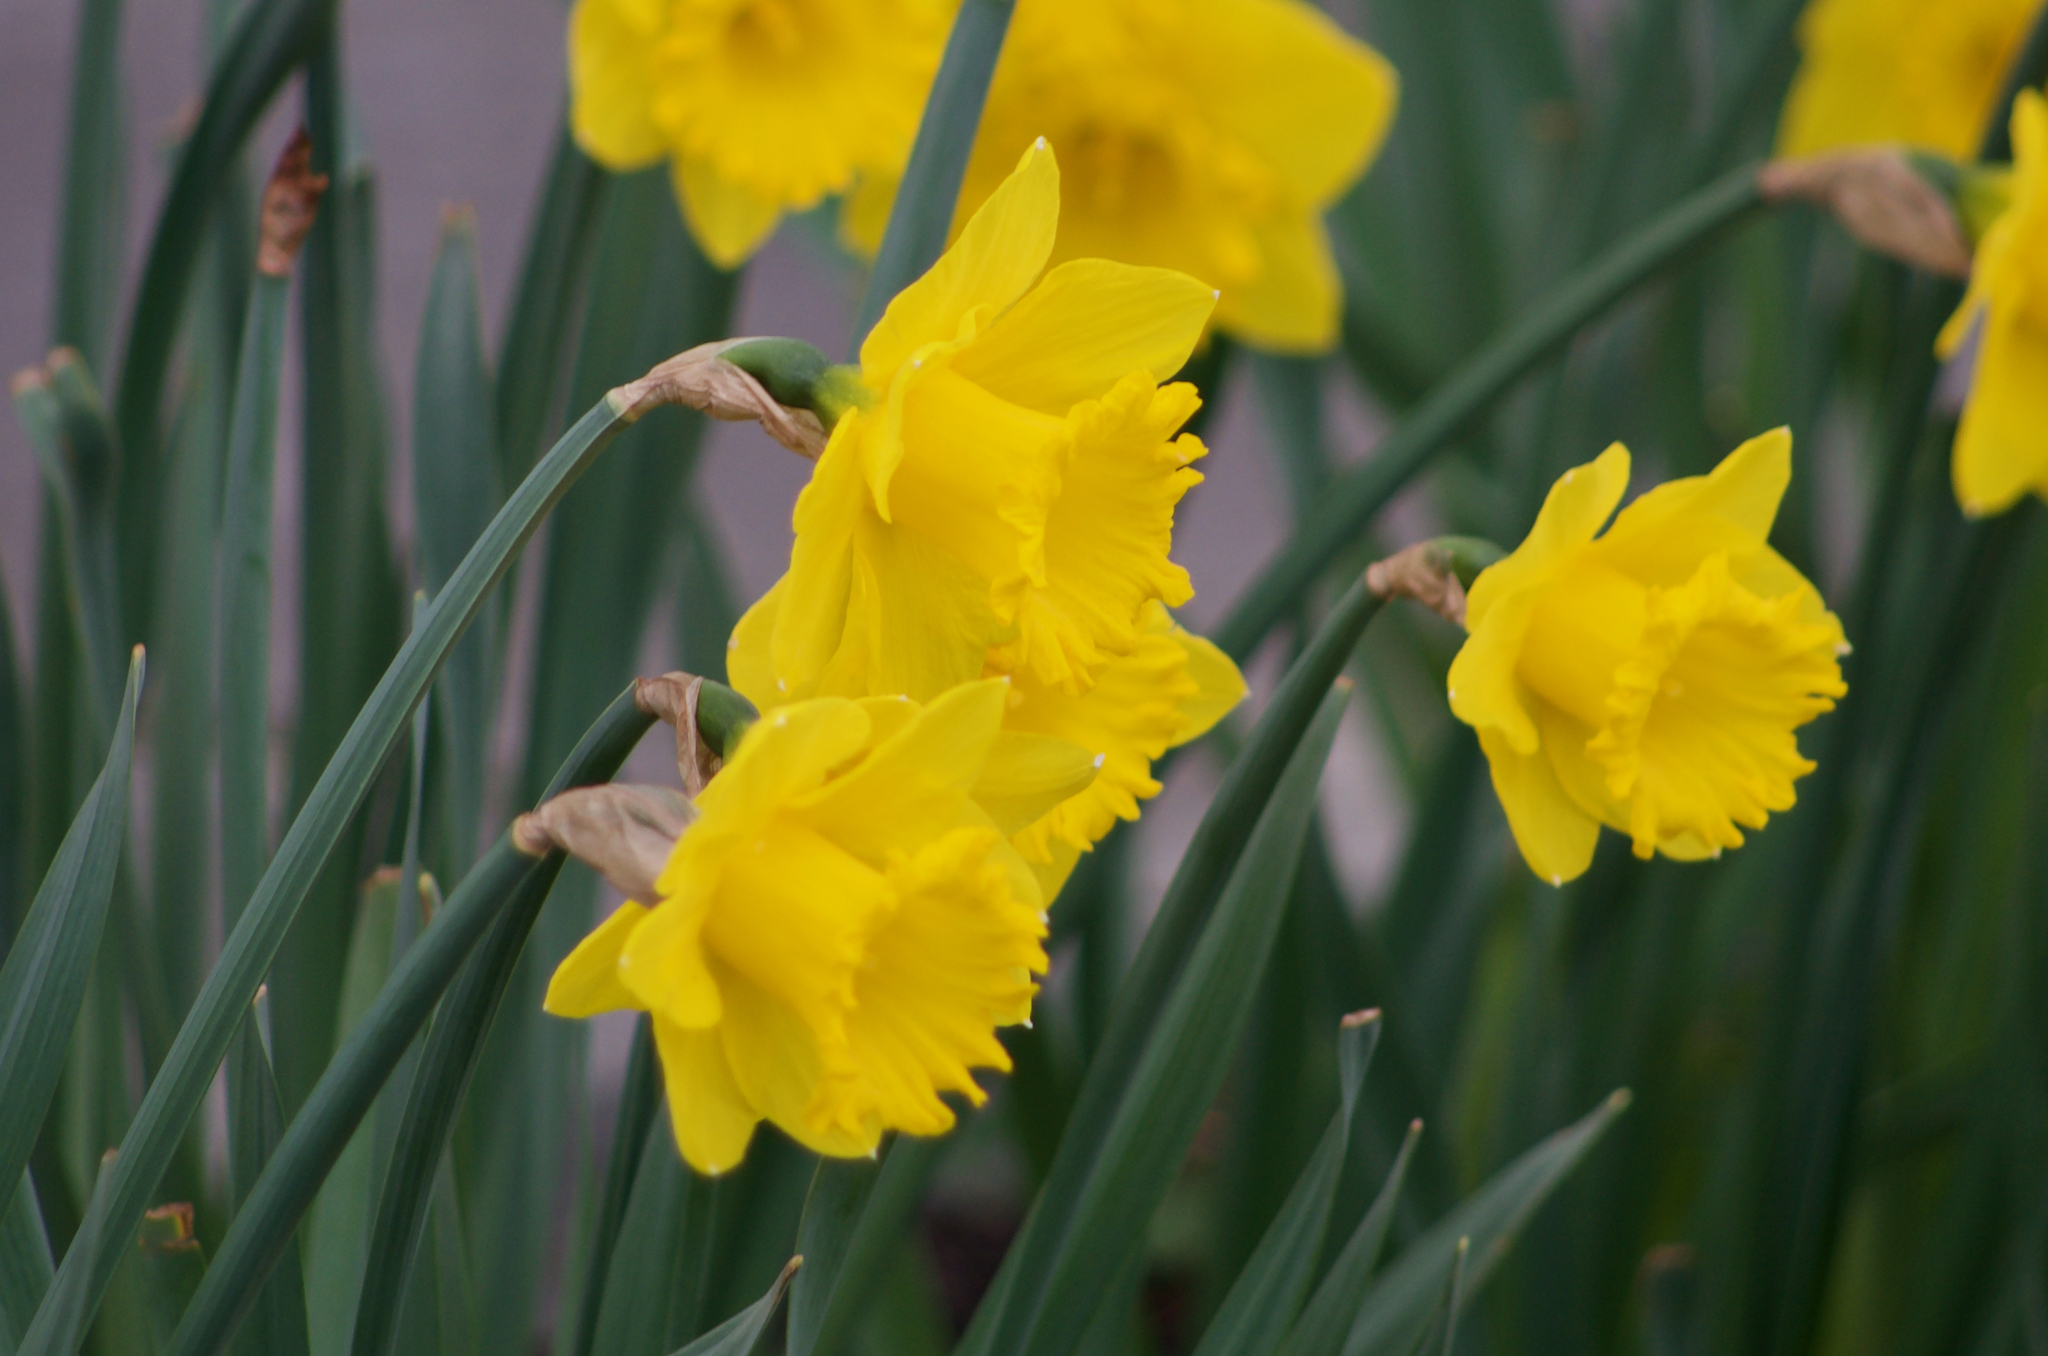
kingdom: Plantae
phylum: Tracheophyta
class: Liliopsida
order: Asparagales
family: Amaryllidaceae
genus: Narcissus
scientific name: Narcissus pseudonarcissus
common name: Daffodil
